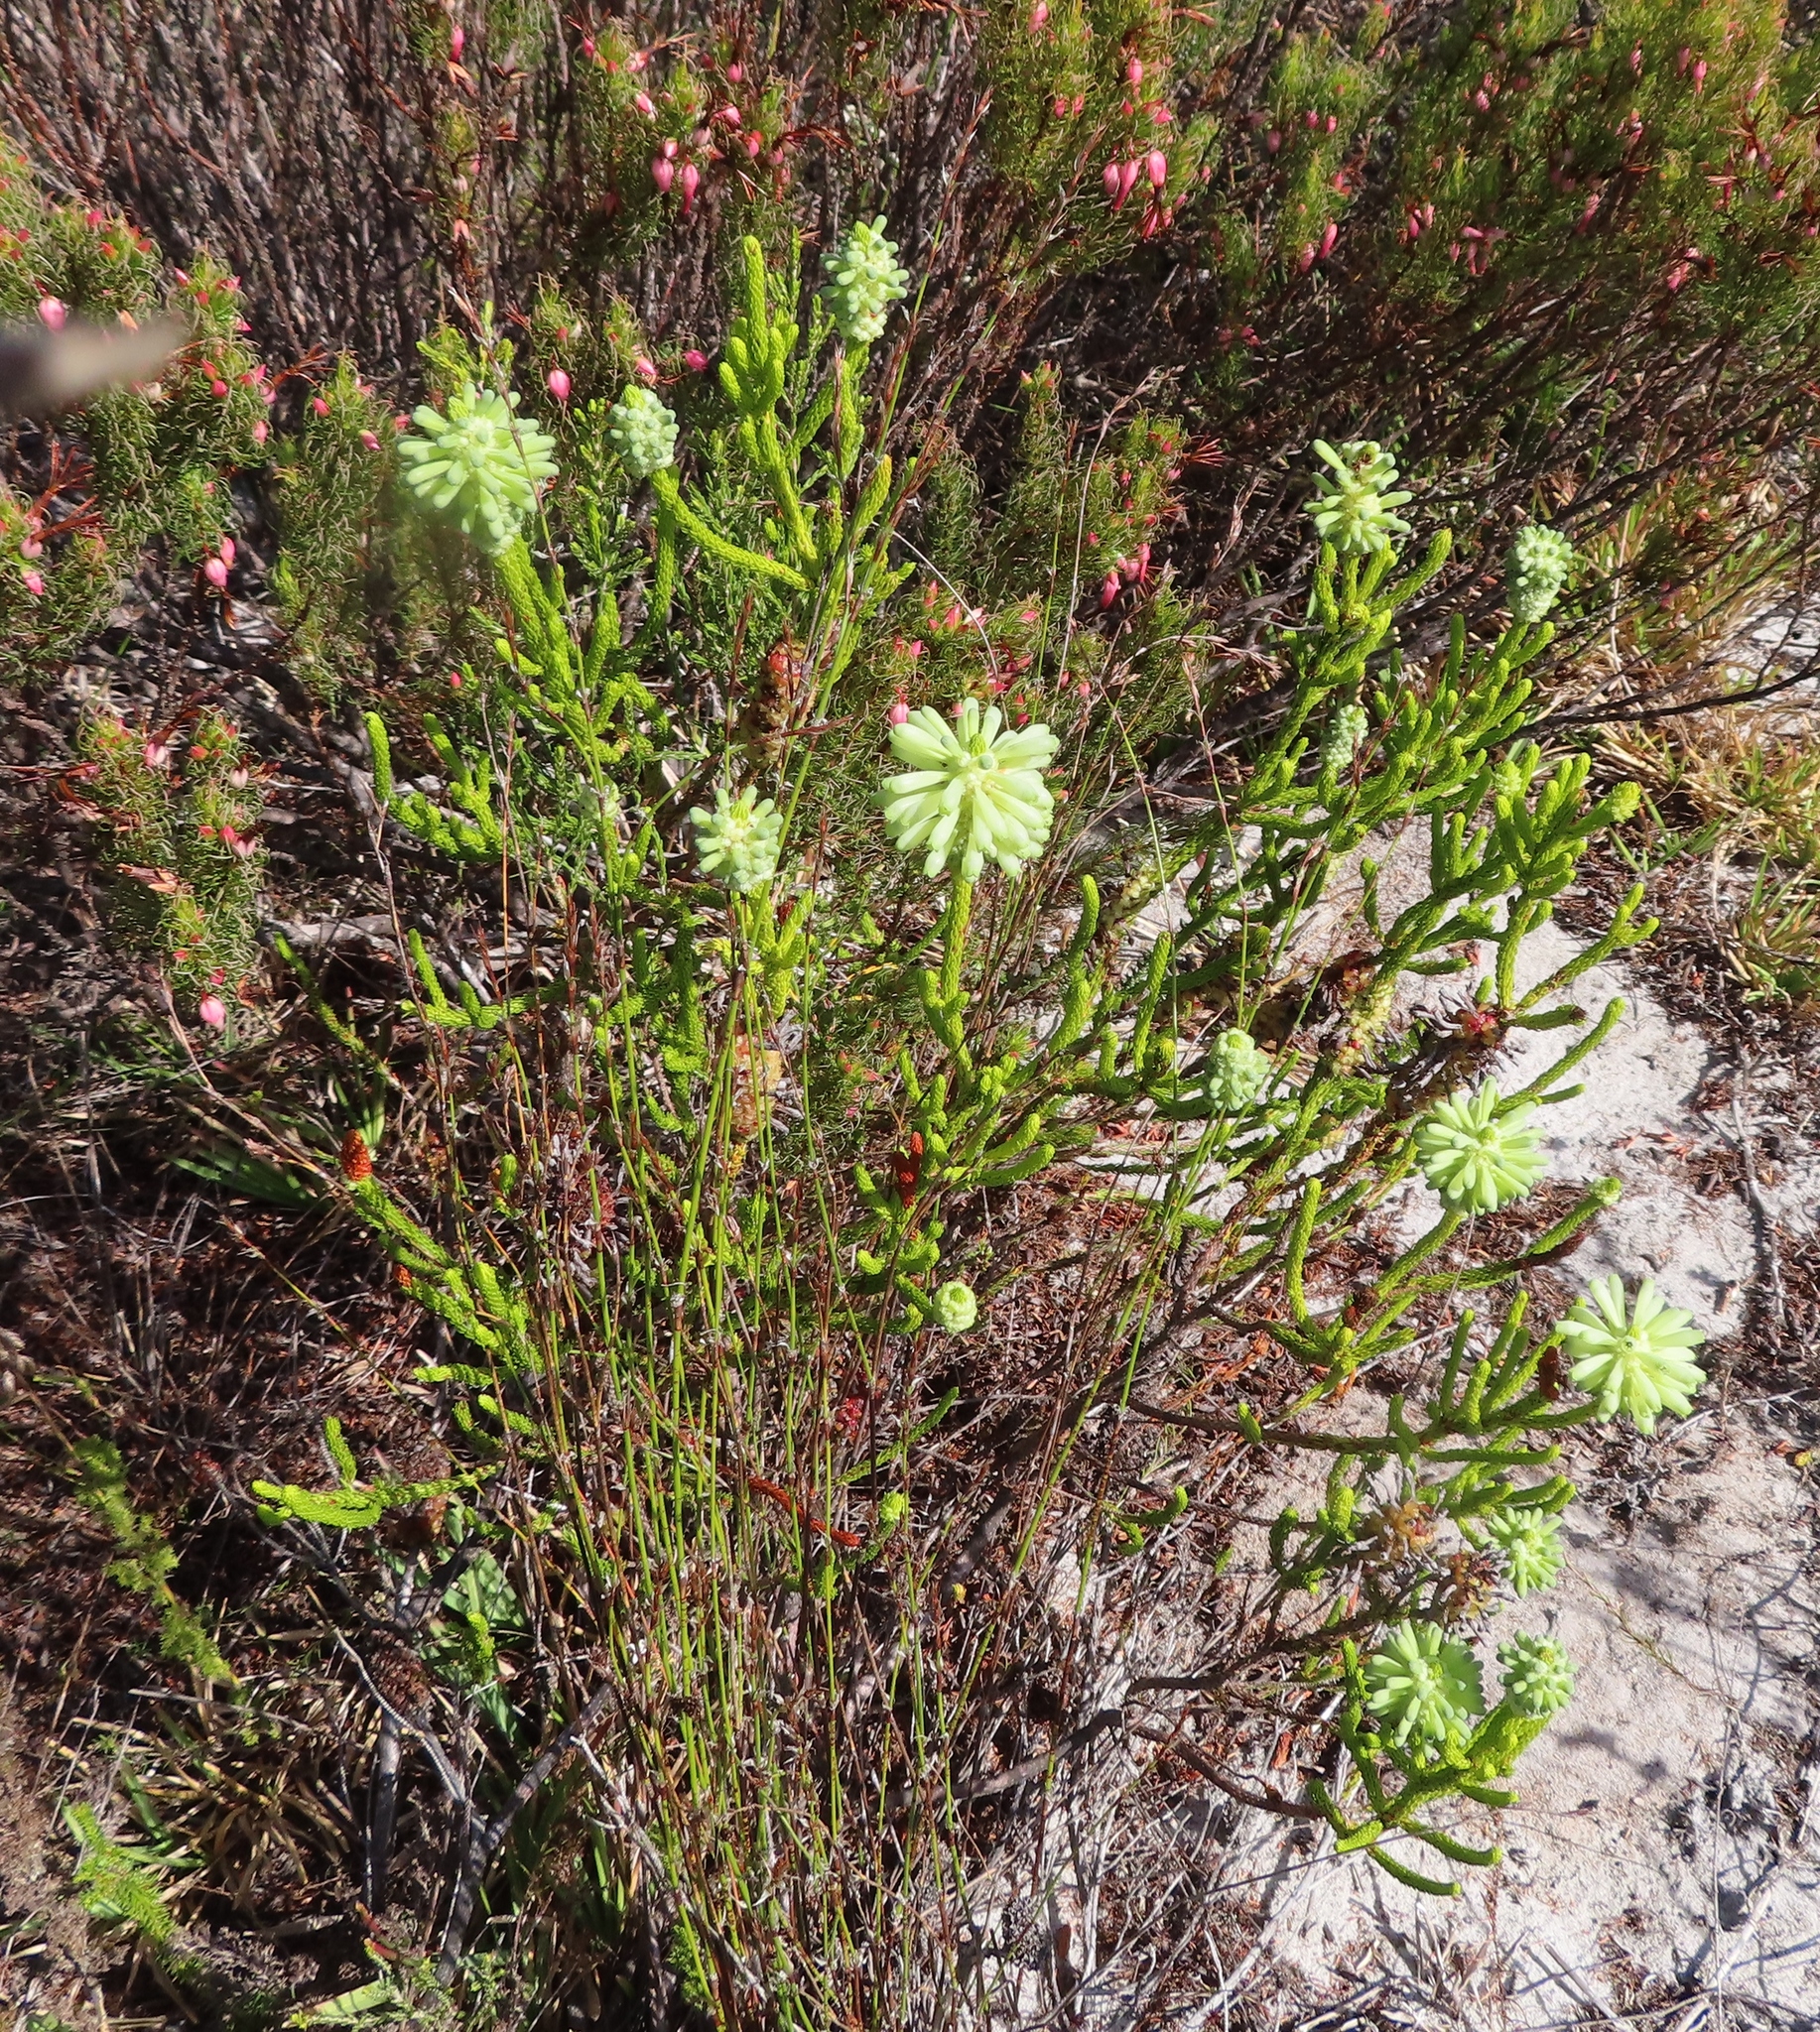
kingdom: Plantae
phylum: Tracheophyta
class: Magnoliopsida
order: Ericales
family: Ericaceae
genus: Erica
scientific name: Erica sessiliflora
